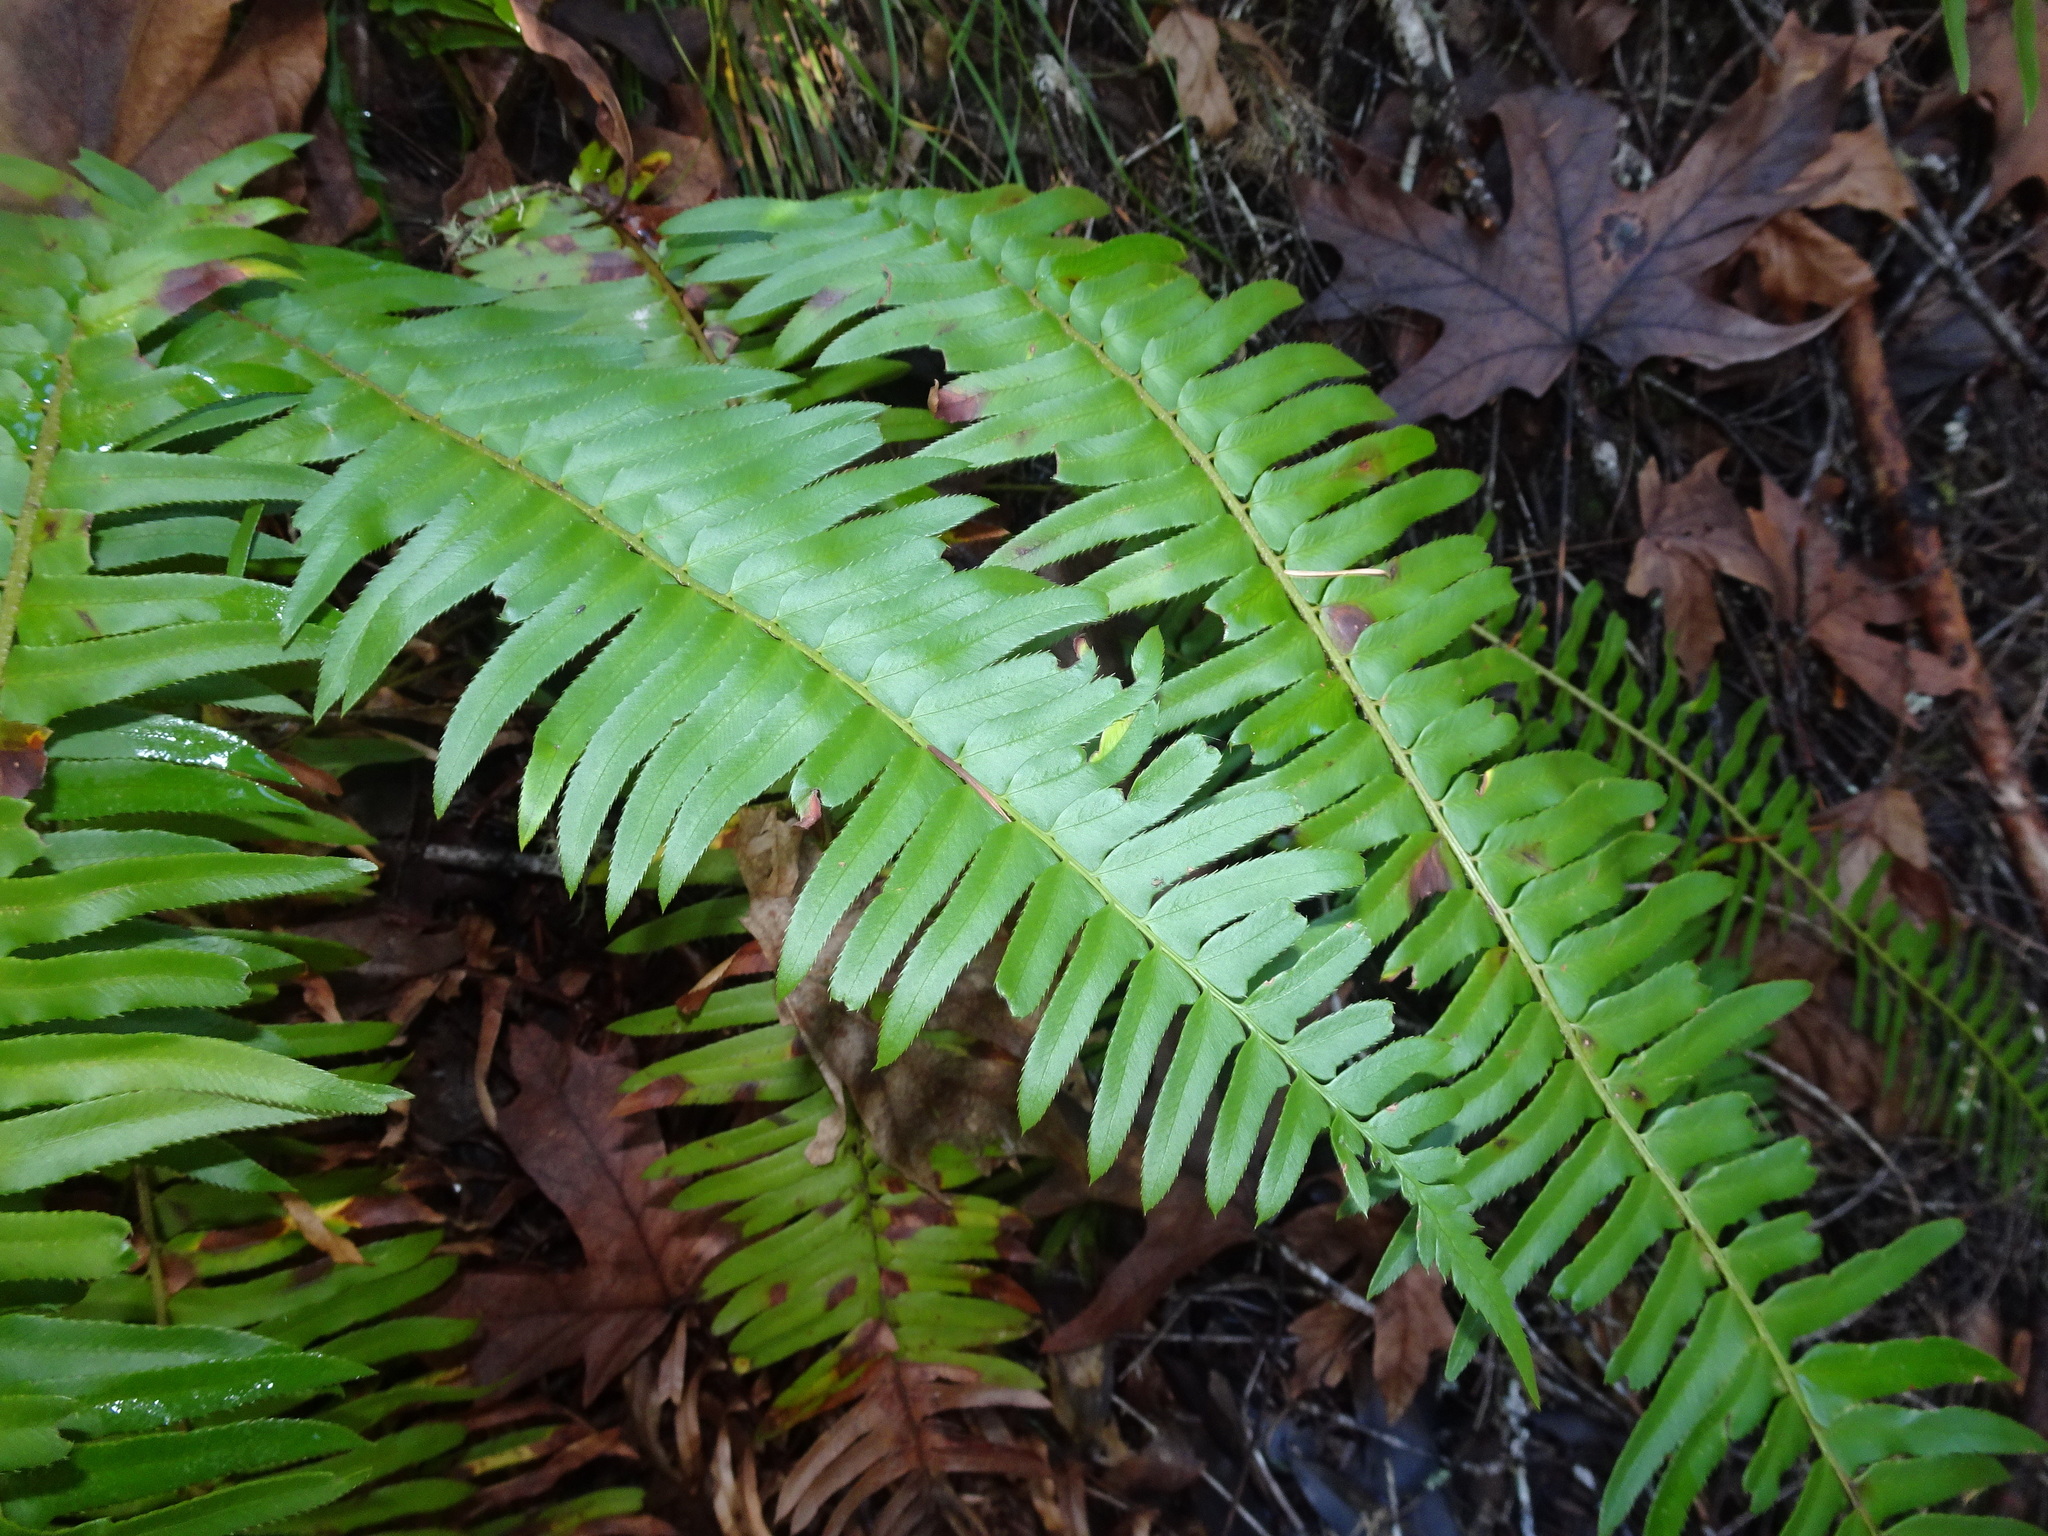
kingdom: Plantae
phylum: Tracheophyta
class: Polypodiopsida
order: Polypodiales
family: Dryopteridaceae
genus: Polystichum
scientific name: Polystichum munitum
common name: Western sword-fern
